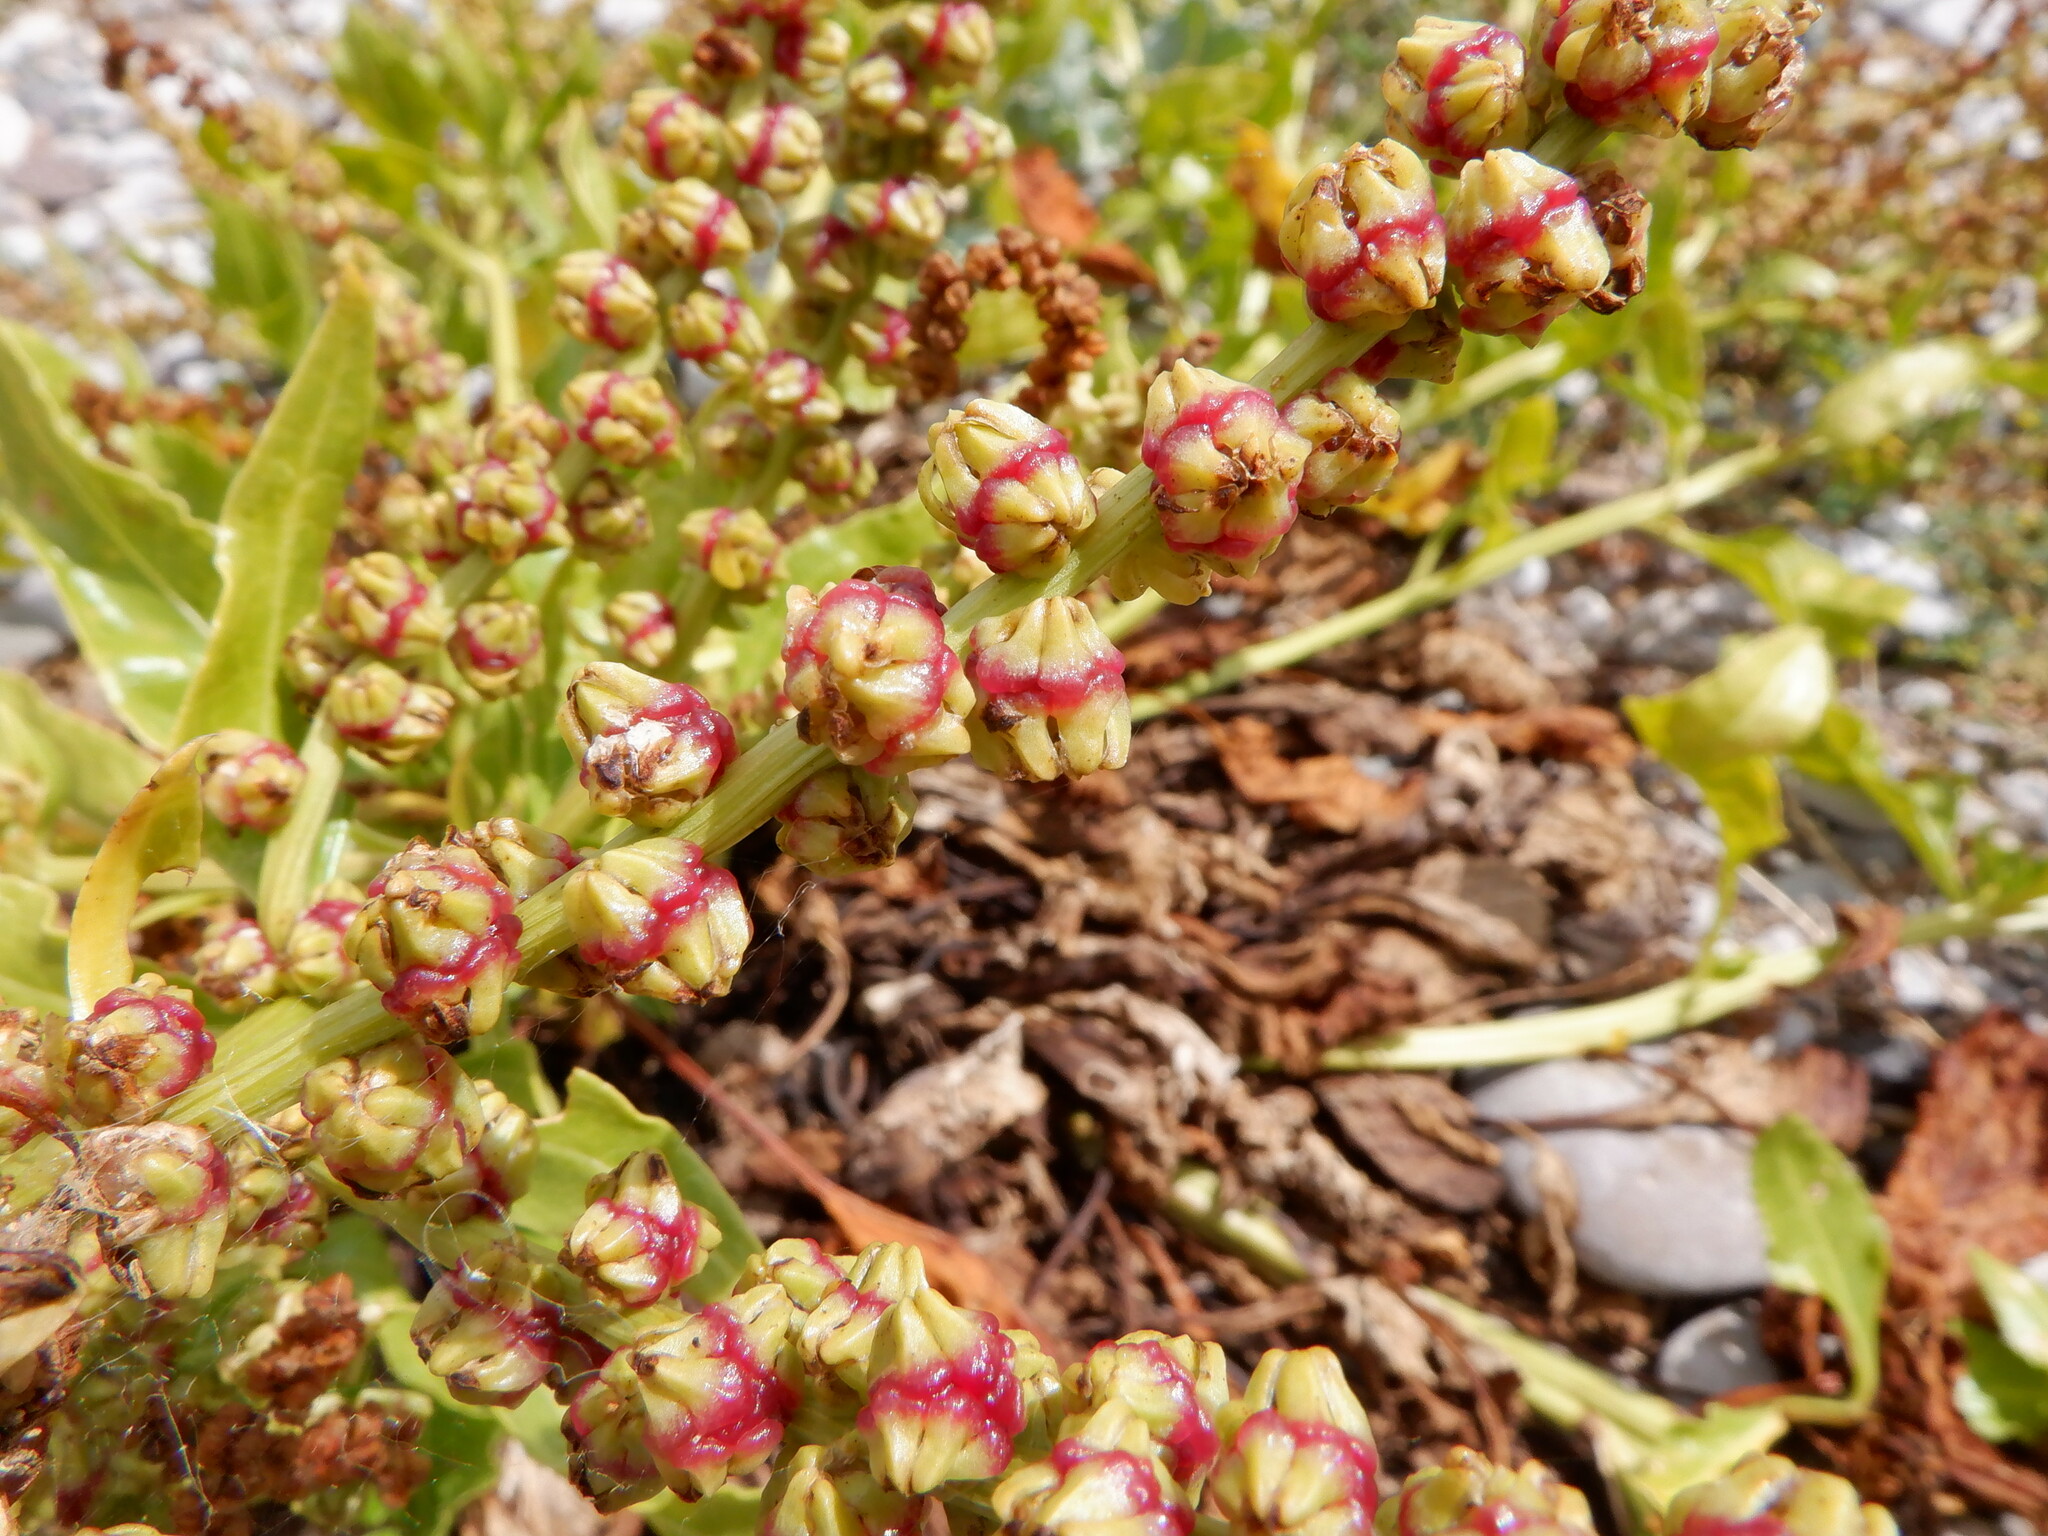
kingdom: Plantae
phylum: Tracheophyta
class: Magnoliopsida
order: Caryophyllales
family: Amaranthaceae
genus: Beta
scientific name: Beta vulgaris
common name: Beet
